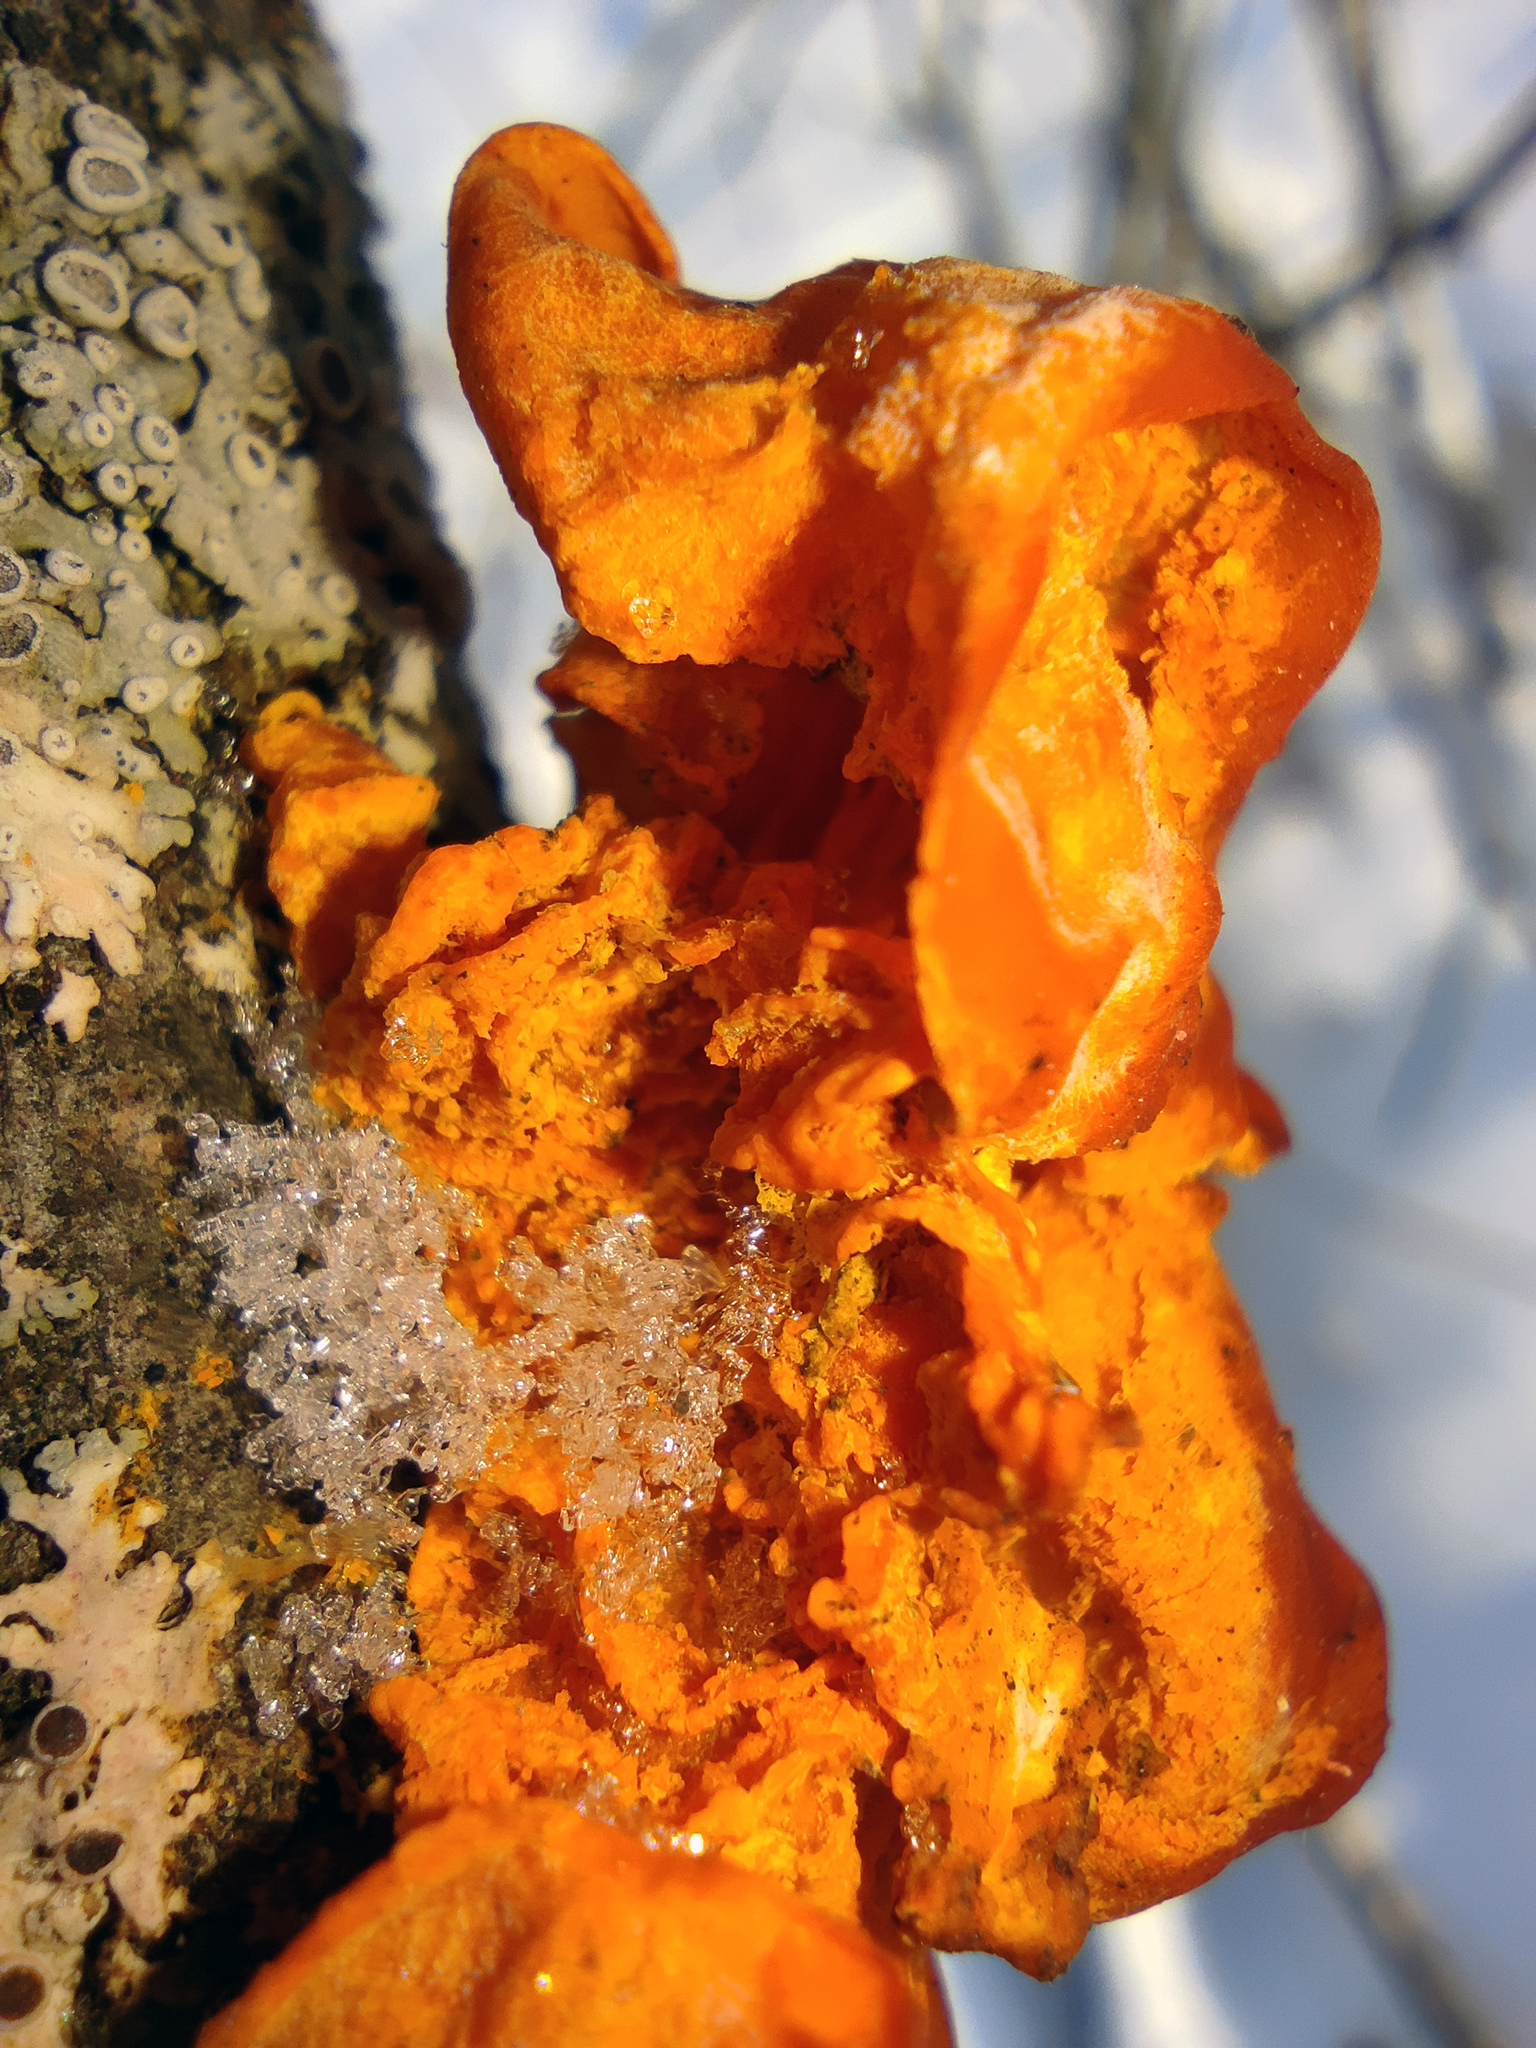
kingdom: Fungi
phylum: Basidiomycota
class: Tremellomycetes
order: Tremellales
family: Tremellaceae
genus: Tremella
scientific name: Tremella mesenterica
